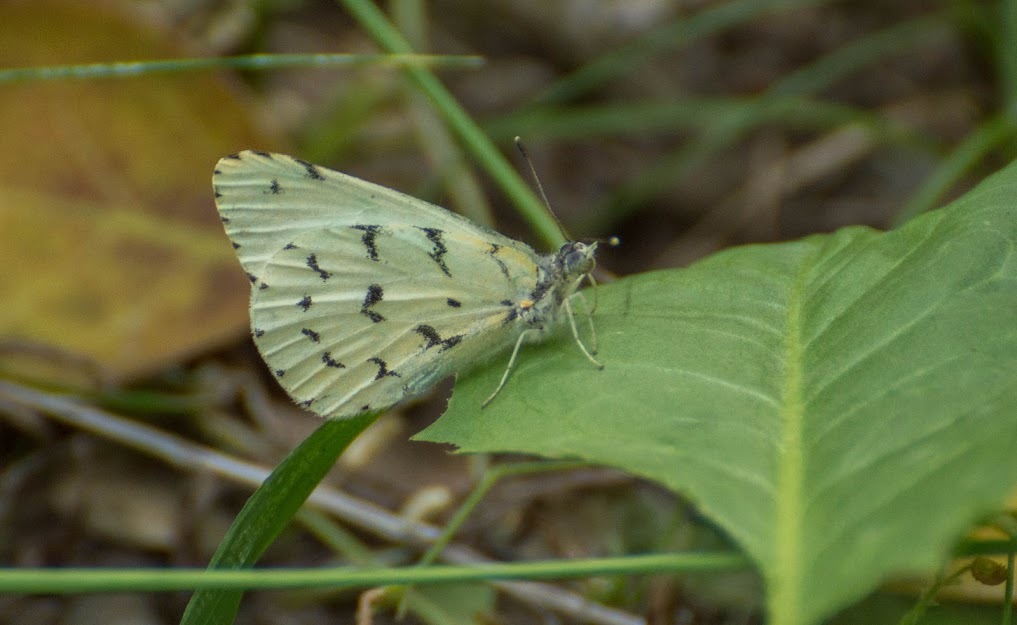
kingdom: Animalia
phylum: Arthropoda
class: Insecta
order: Lepidoptera
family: Pieridae
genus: Hesperocharis
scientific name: Hesperocharis
